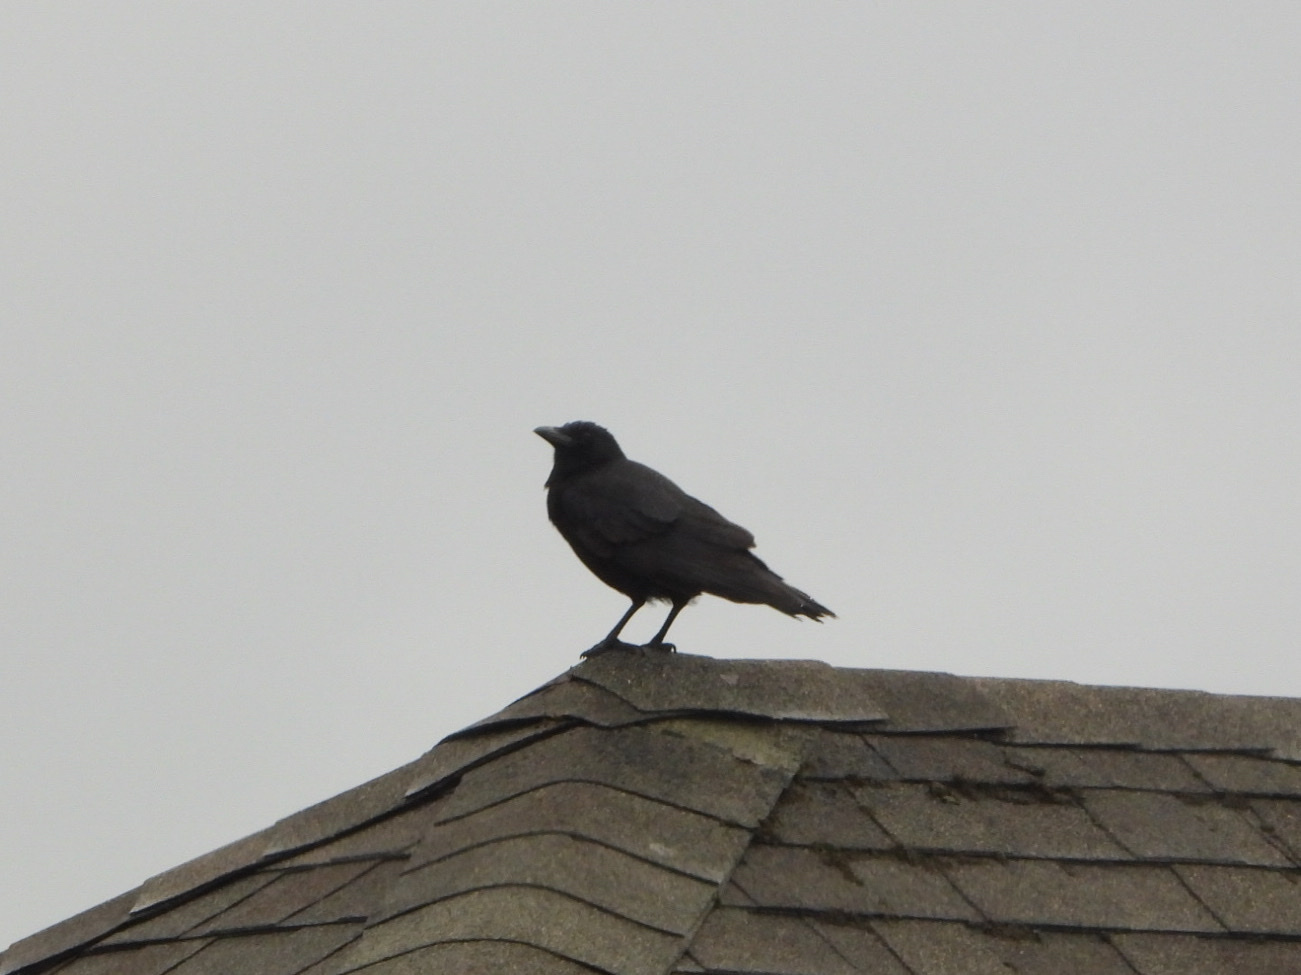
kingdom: Animalia
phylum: Chordata
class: Aves
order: Passeriformes
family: Corvidae
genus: Corvus
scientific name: Corvus brachyrhynchos
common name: American crow
